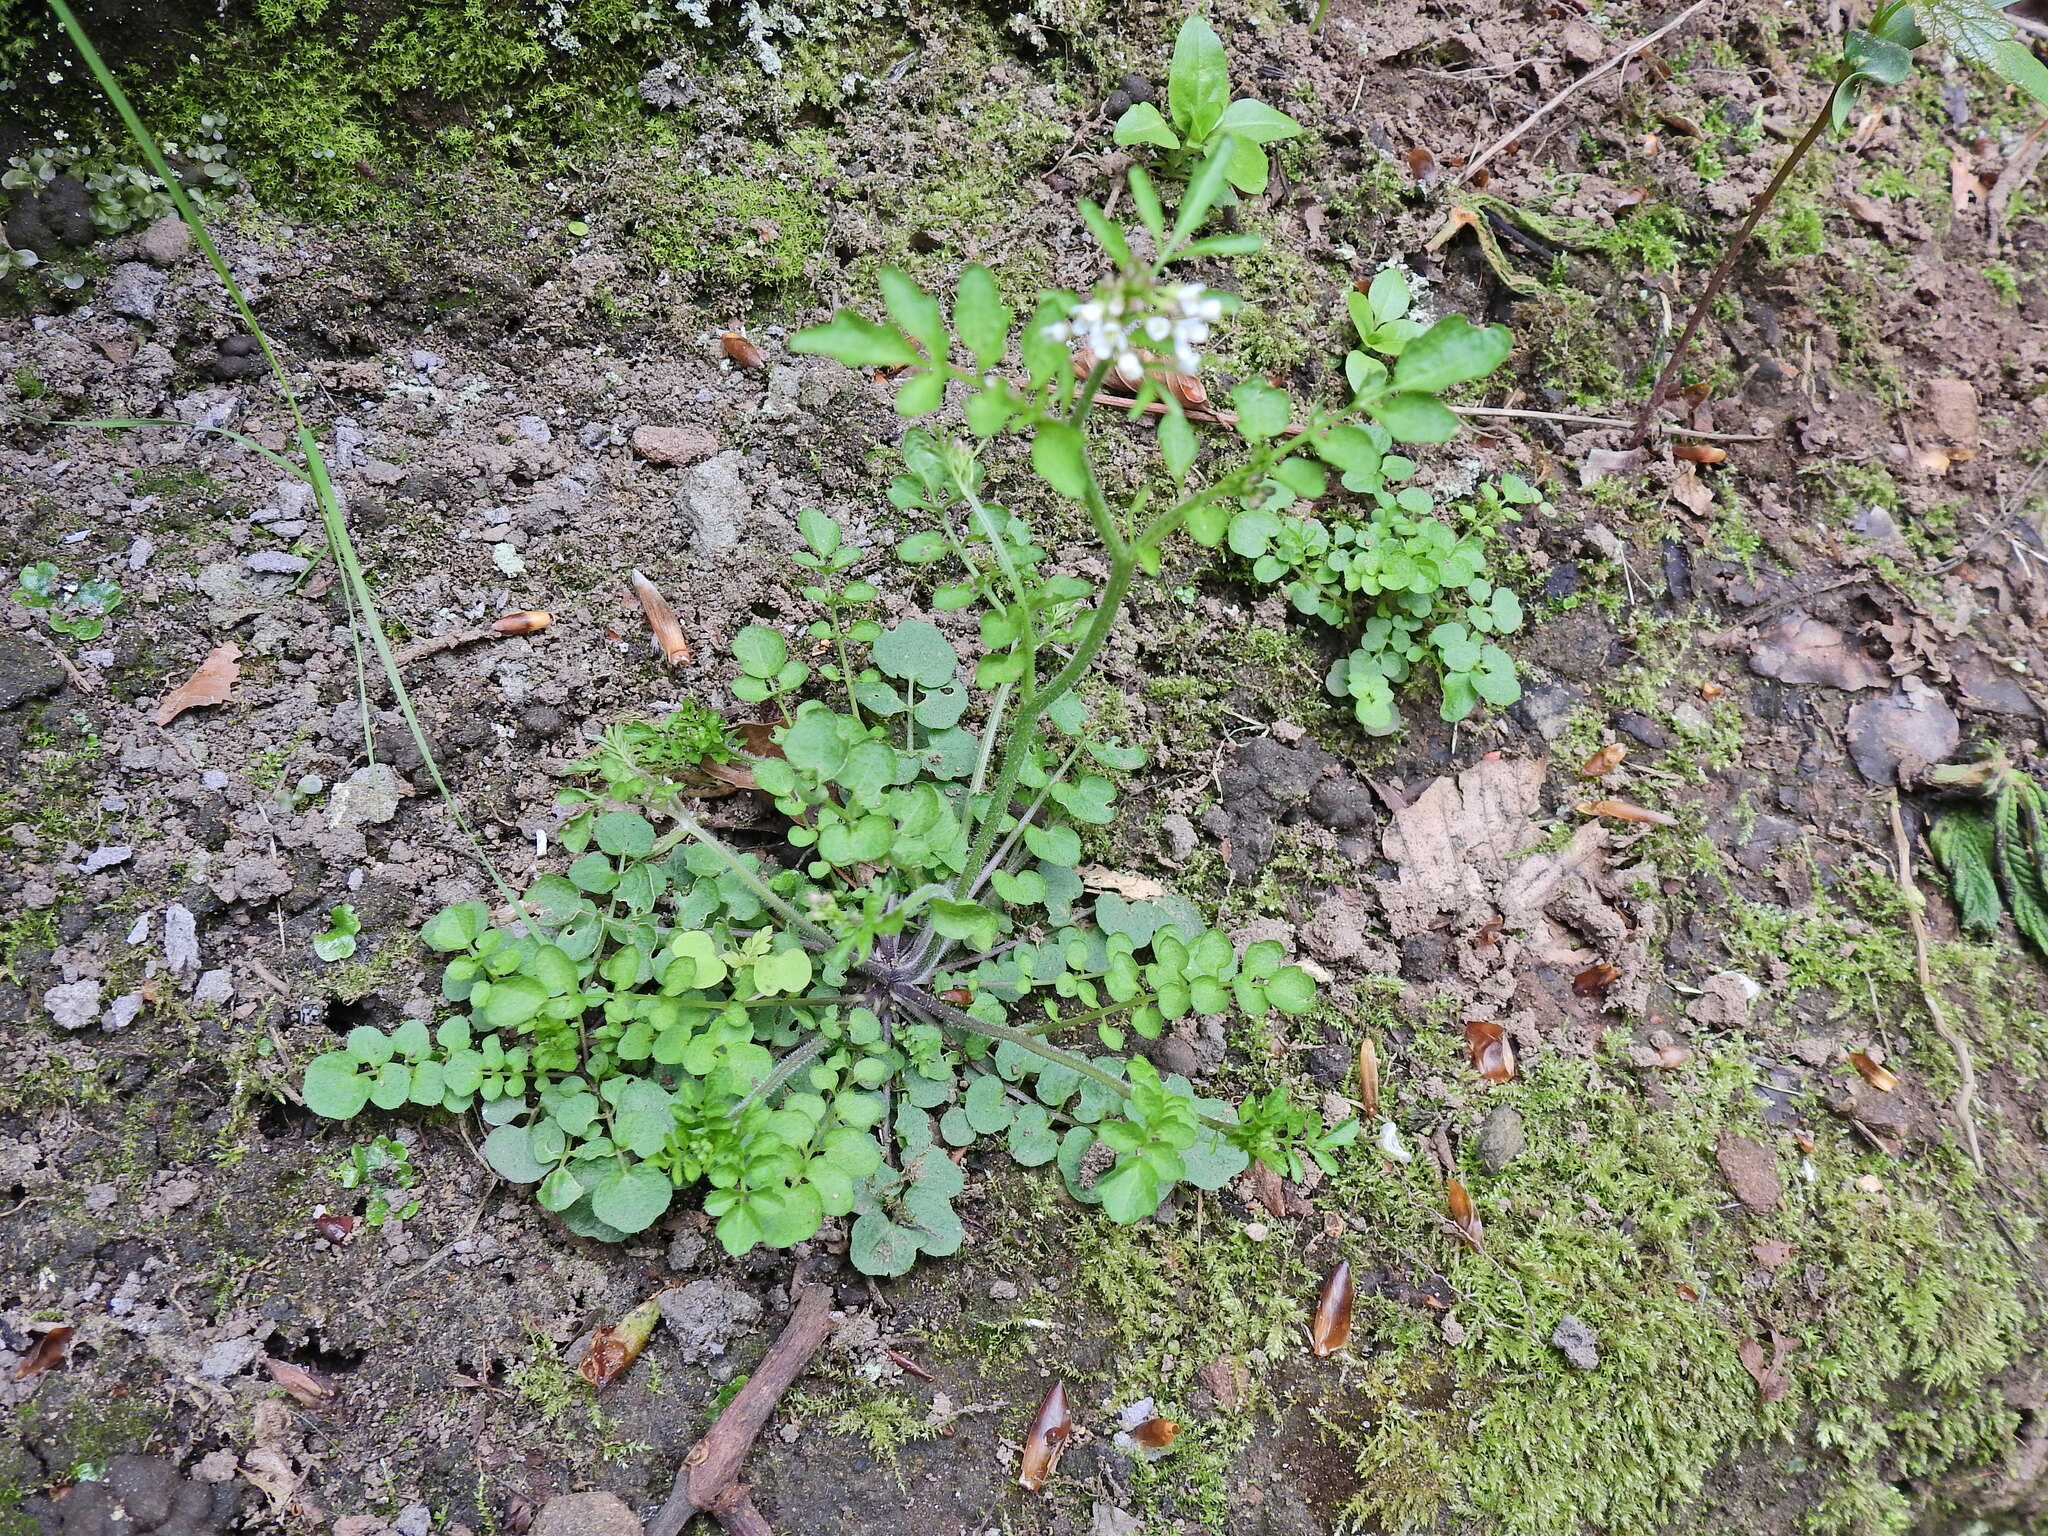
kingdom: Plantae
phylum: Tracheophyta
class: Magnoliopsida
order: Brassicales
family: Brassicaceae
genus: Cardamine
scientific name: Cardamine flexuosa
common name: Woodland bittercress
